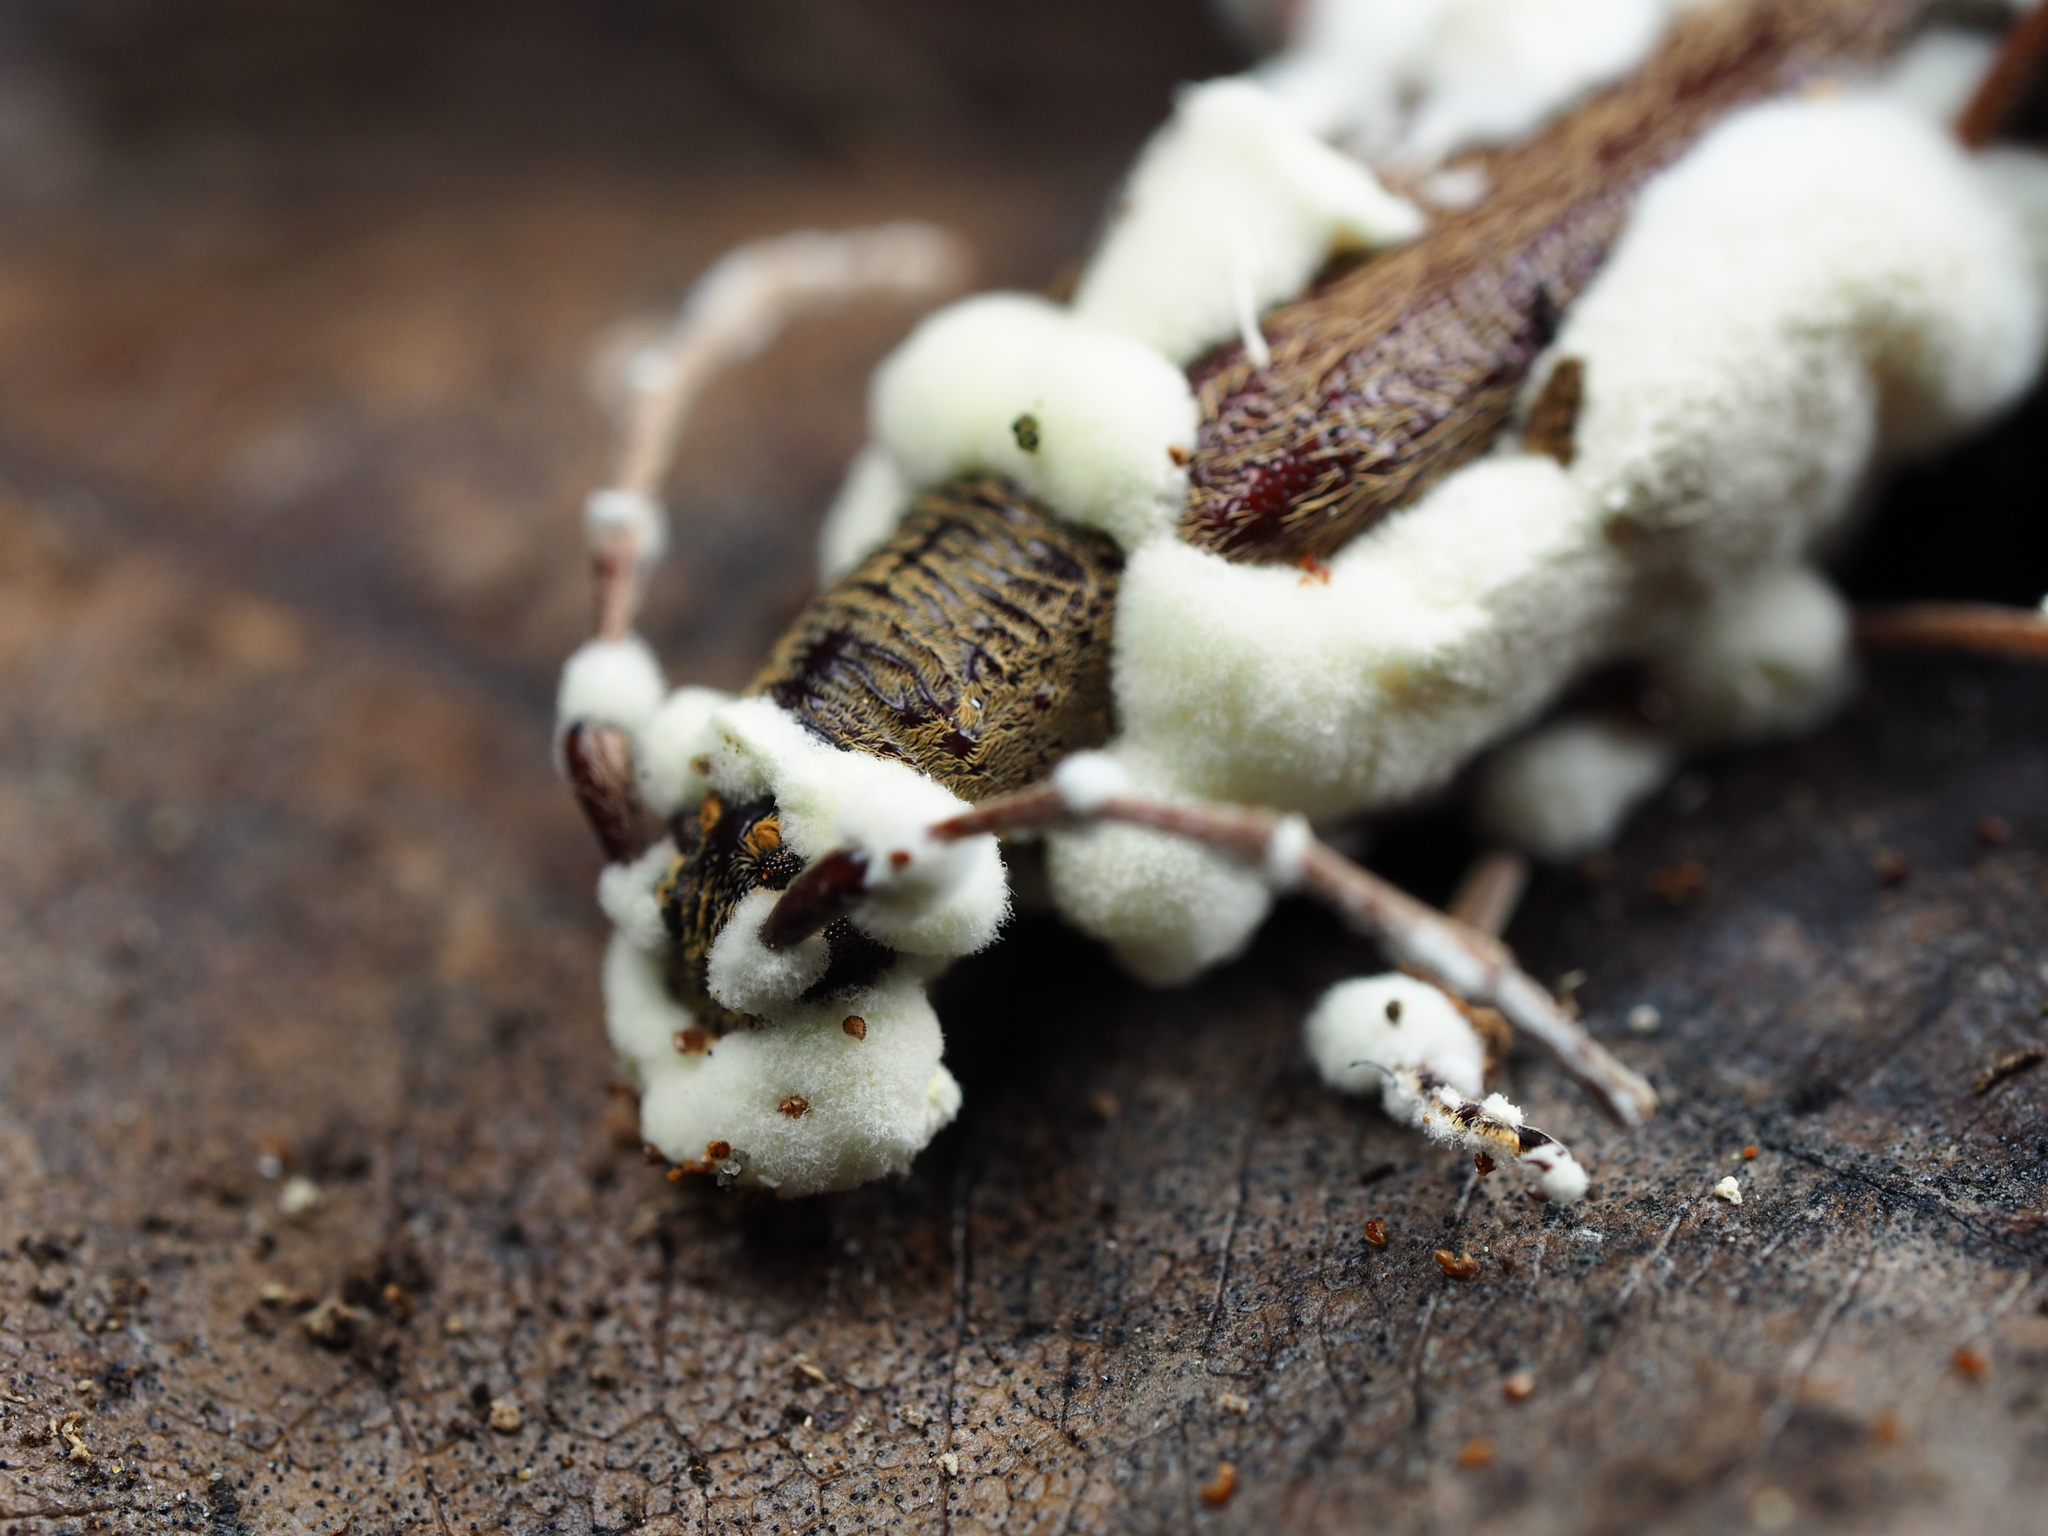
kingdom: Fungi
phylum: Ascomycota
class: Sordariomycetes
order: Hypocreales
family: Cordycipitaceae
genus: Beauveria
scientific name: Beauveria pseudobassiana
